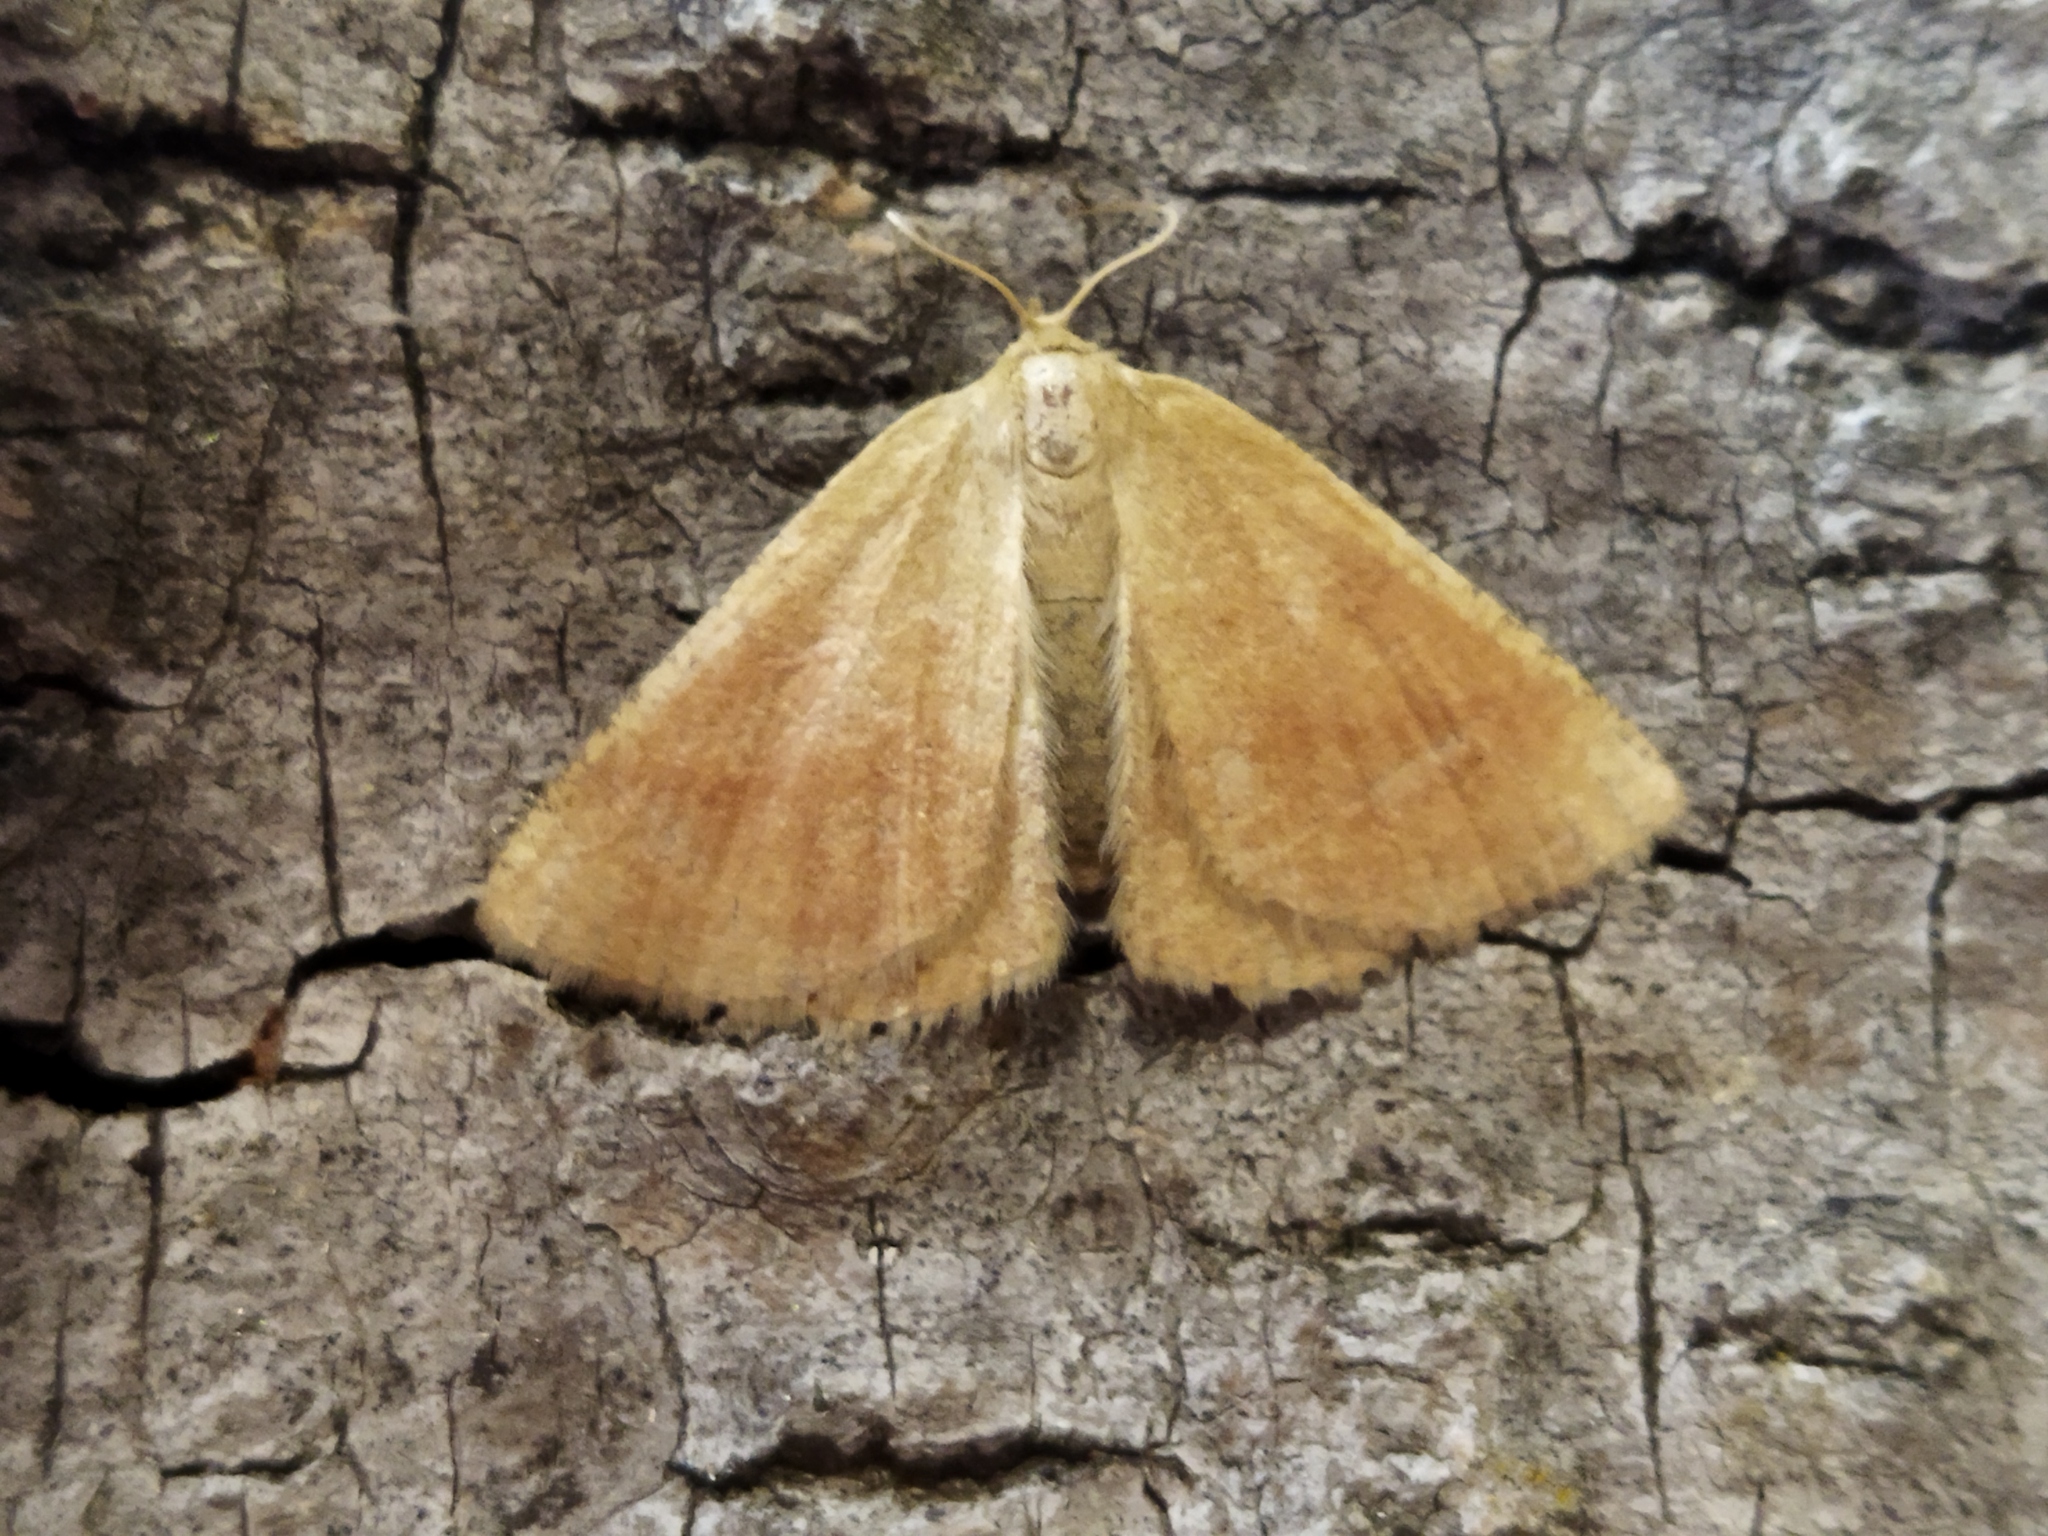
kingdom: Animalia
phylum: Arthropoda
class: Insecta
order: Lepidoptera
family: Geometridae
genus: Aplasta
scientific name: Aplasta ononaria
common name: Rest harrow
